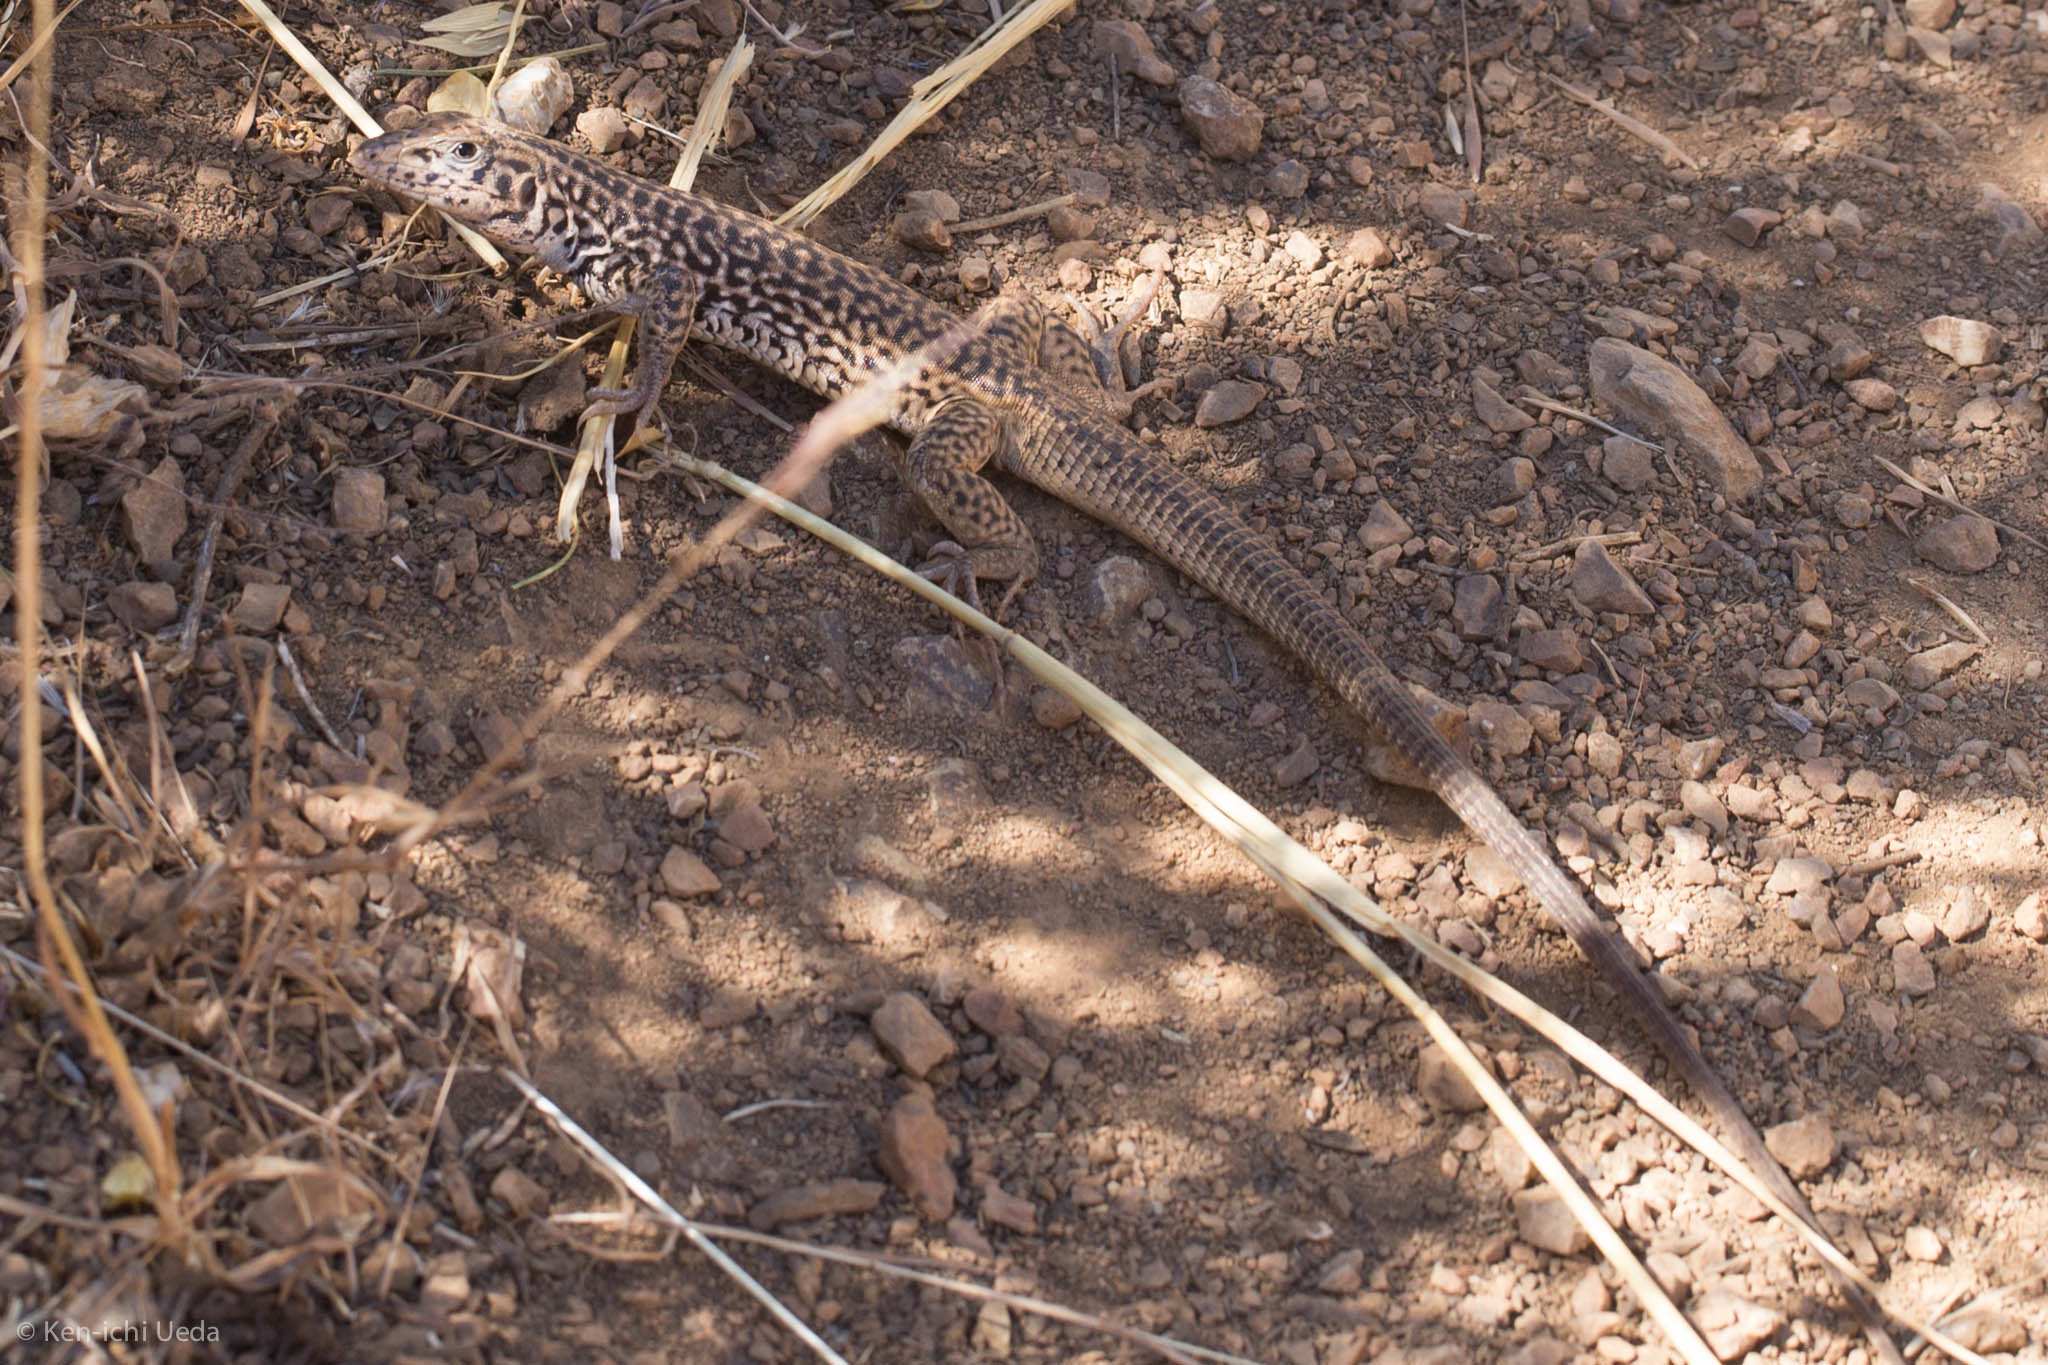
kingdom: Animalia
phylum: Chordata
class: Squamata
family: Teiidae
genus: Aspidoscelis
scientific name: Aspidoscelis tigris
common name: Tiger whiptail
